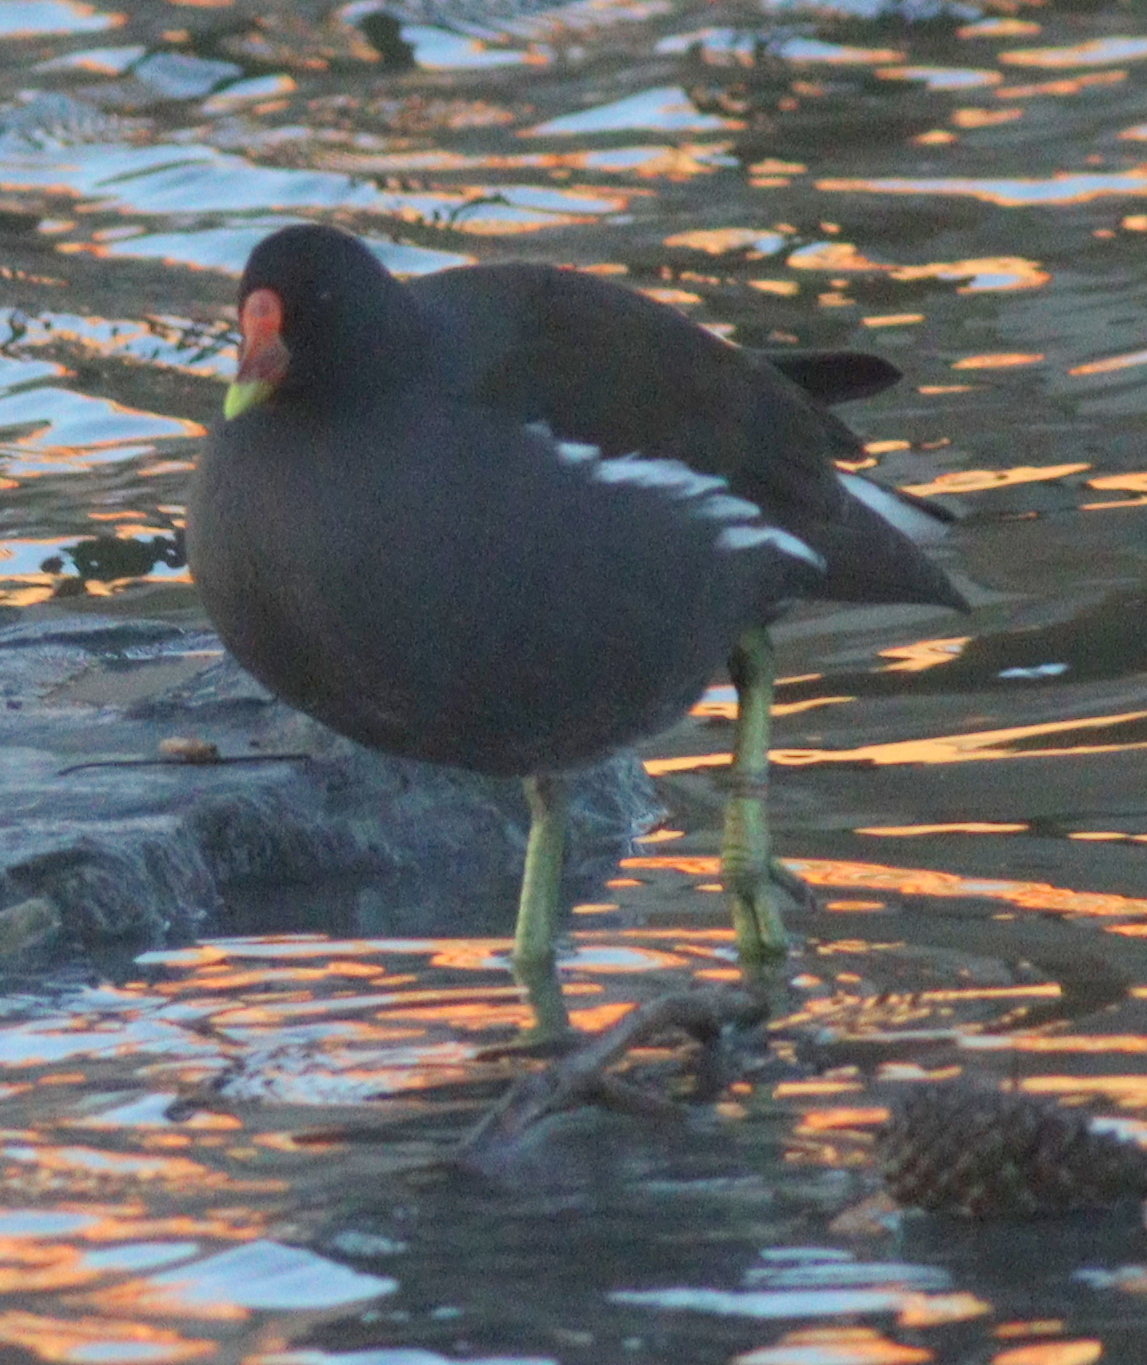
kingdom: Animalia
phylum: Chordata
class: Aves
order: Gruiformes
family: Rallidae
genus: Gallinula
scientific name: Gallinula chloropus
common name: Common moorhen
